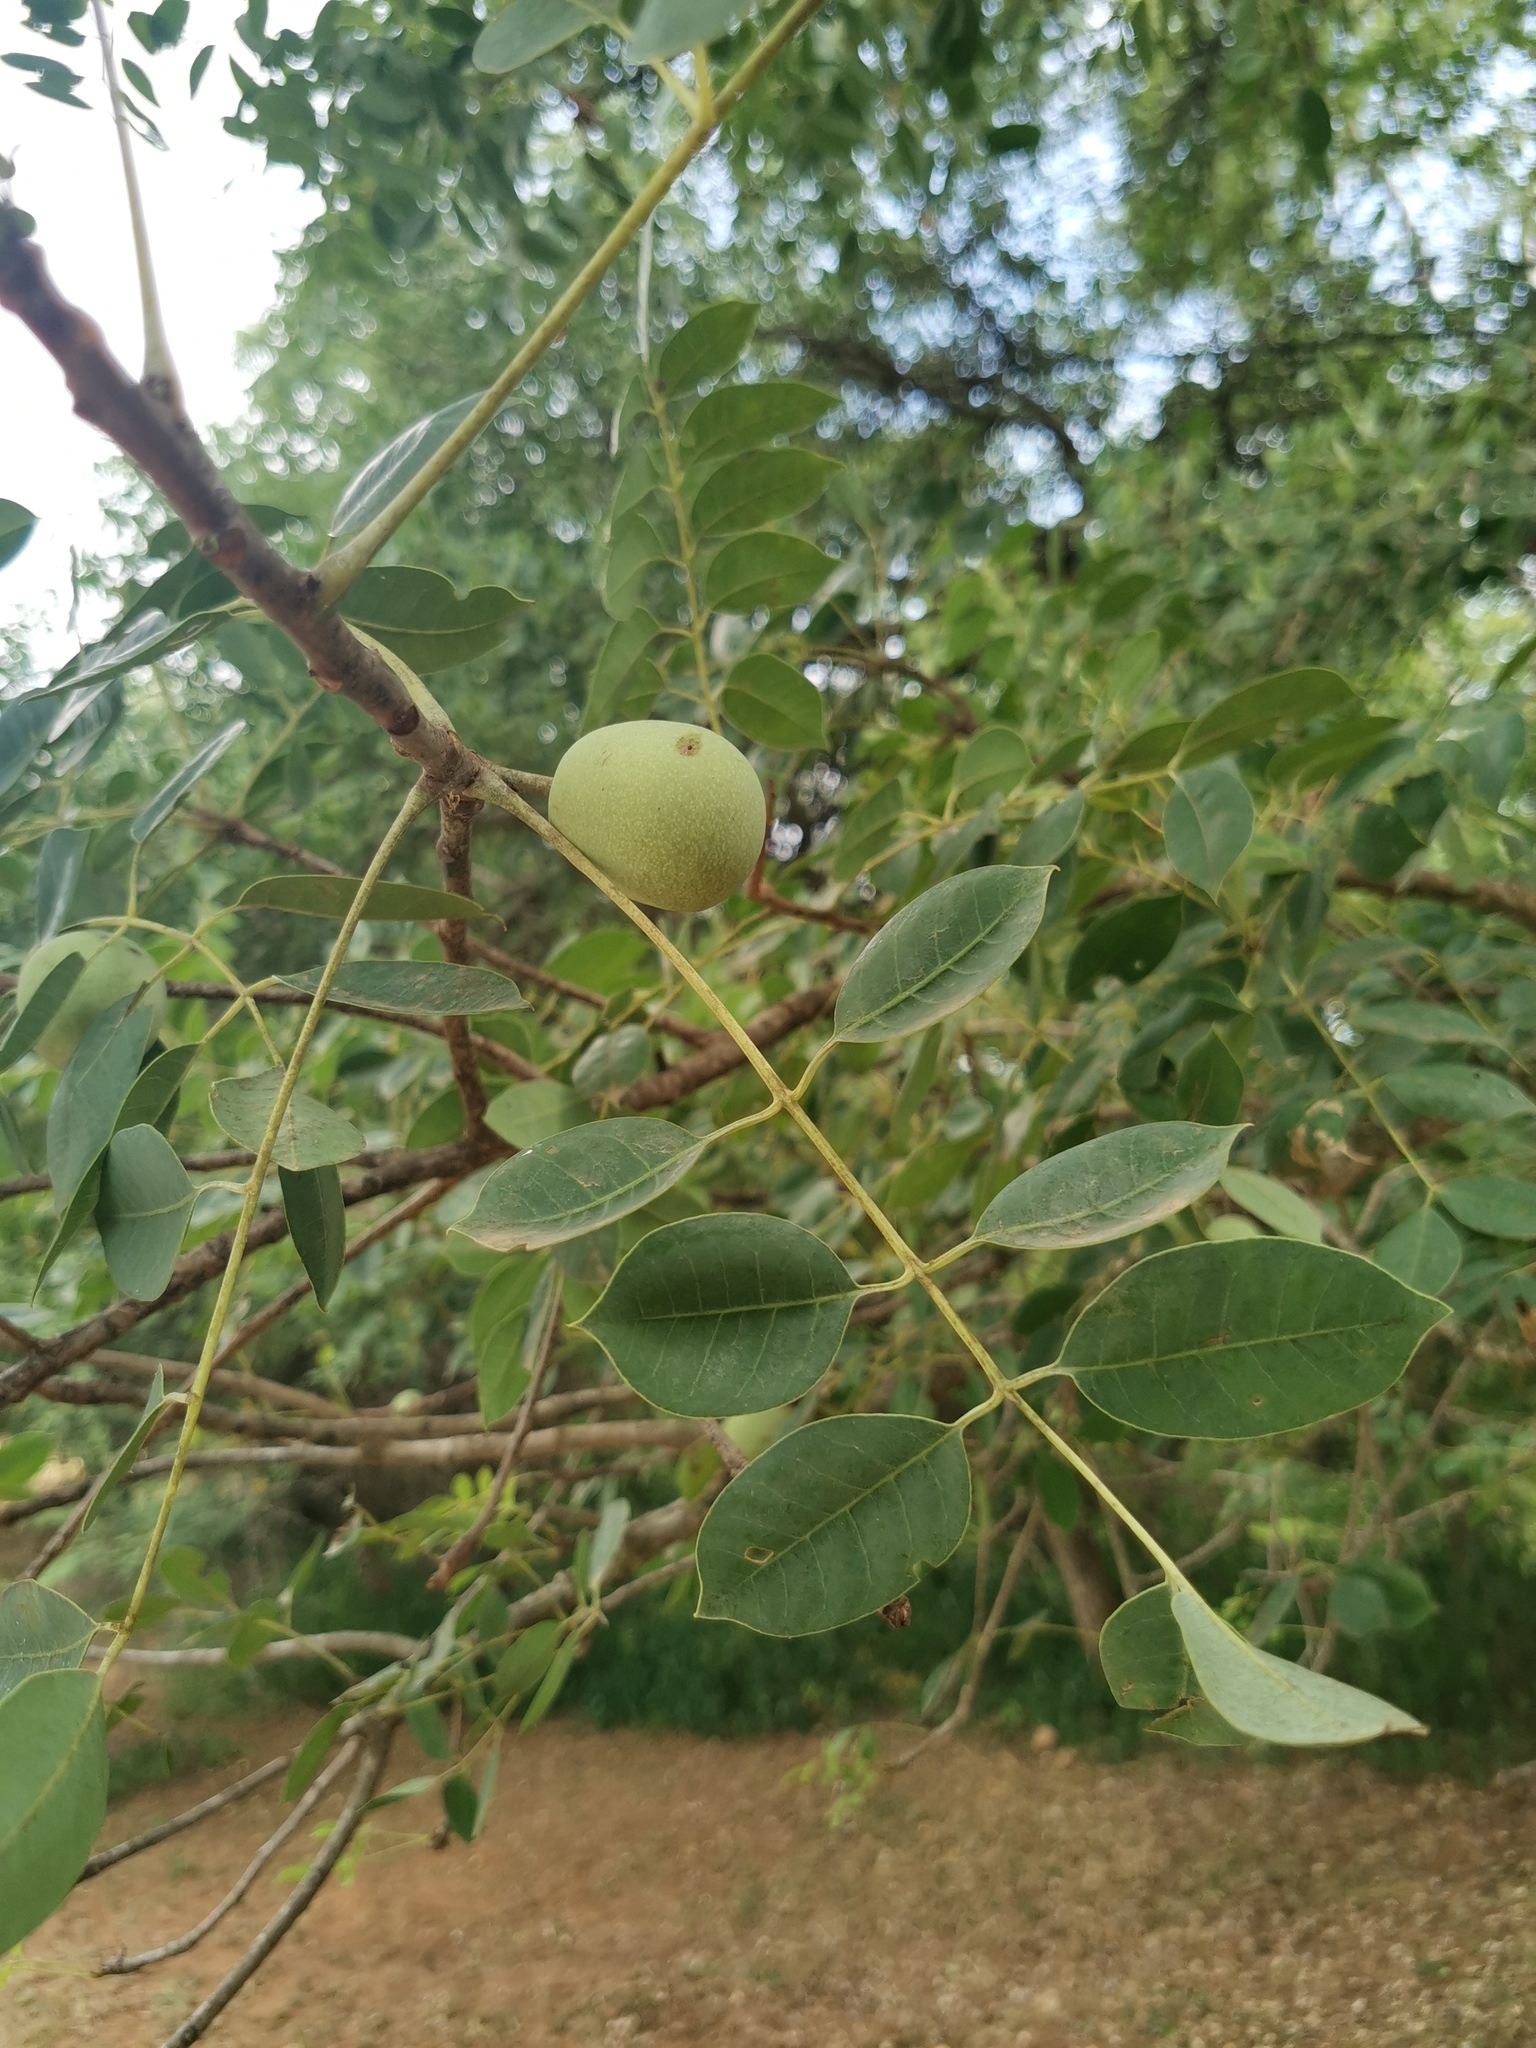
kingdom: Plantae
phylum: Tracheophyta
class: Magnoliopsida
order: Sapindales
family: Anacardiaceae
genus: Sclerocarya
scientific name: Sclerocarya birrea
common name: Marula
